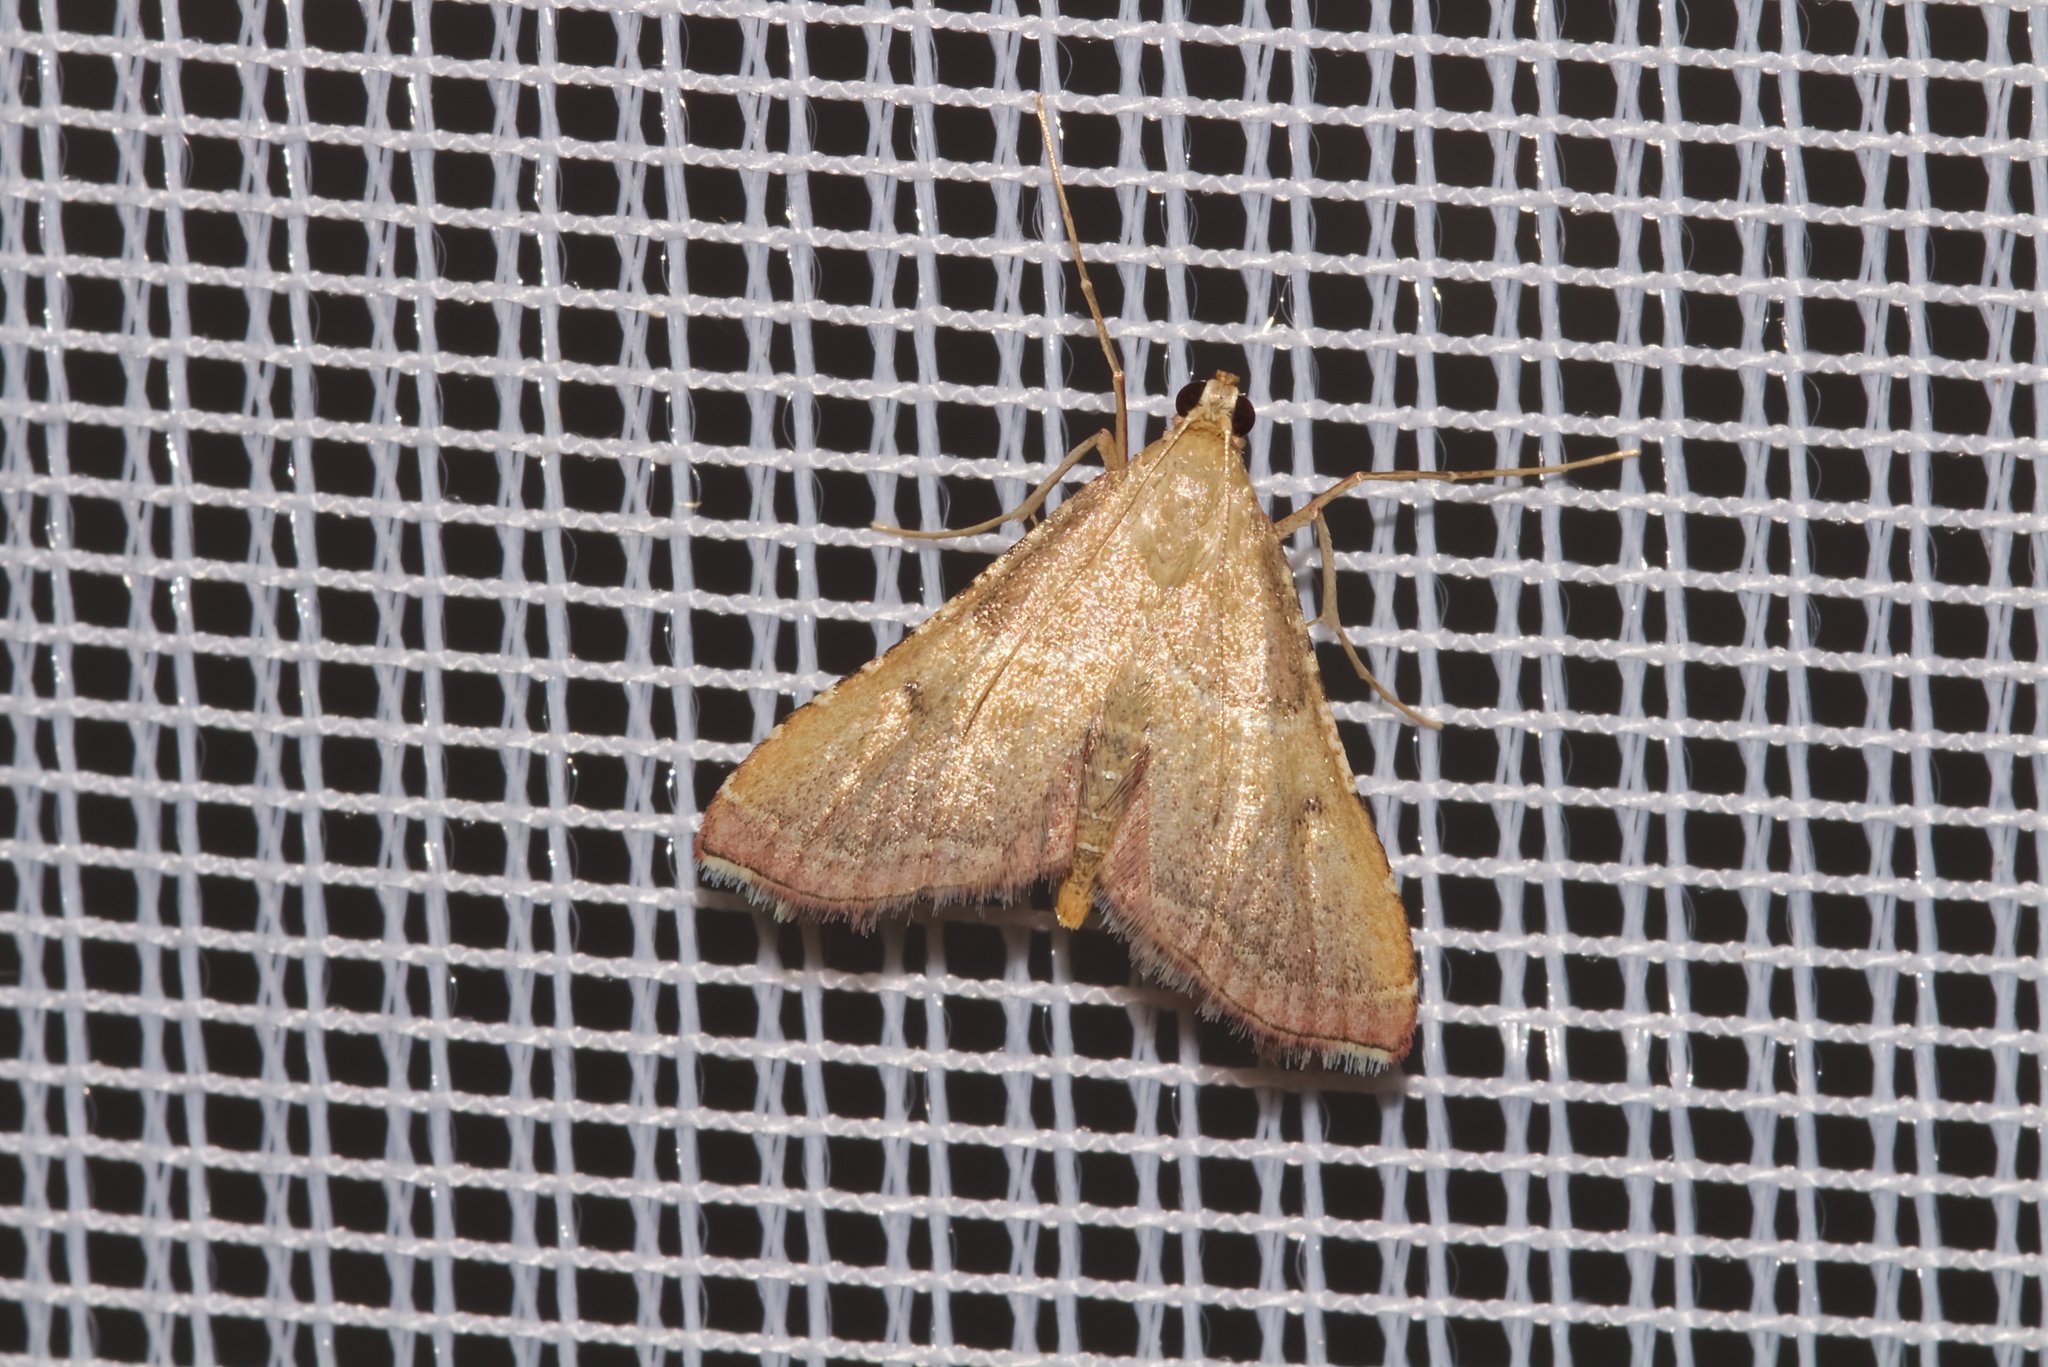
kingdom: Animalia
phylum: Arthropoda
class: Insecta
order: Lepidoptera
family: Pyralidae
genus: Endotricha
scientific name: Endotricha flammealis
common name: Rosy tabby
